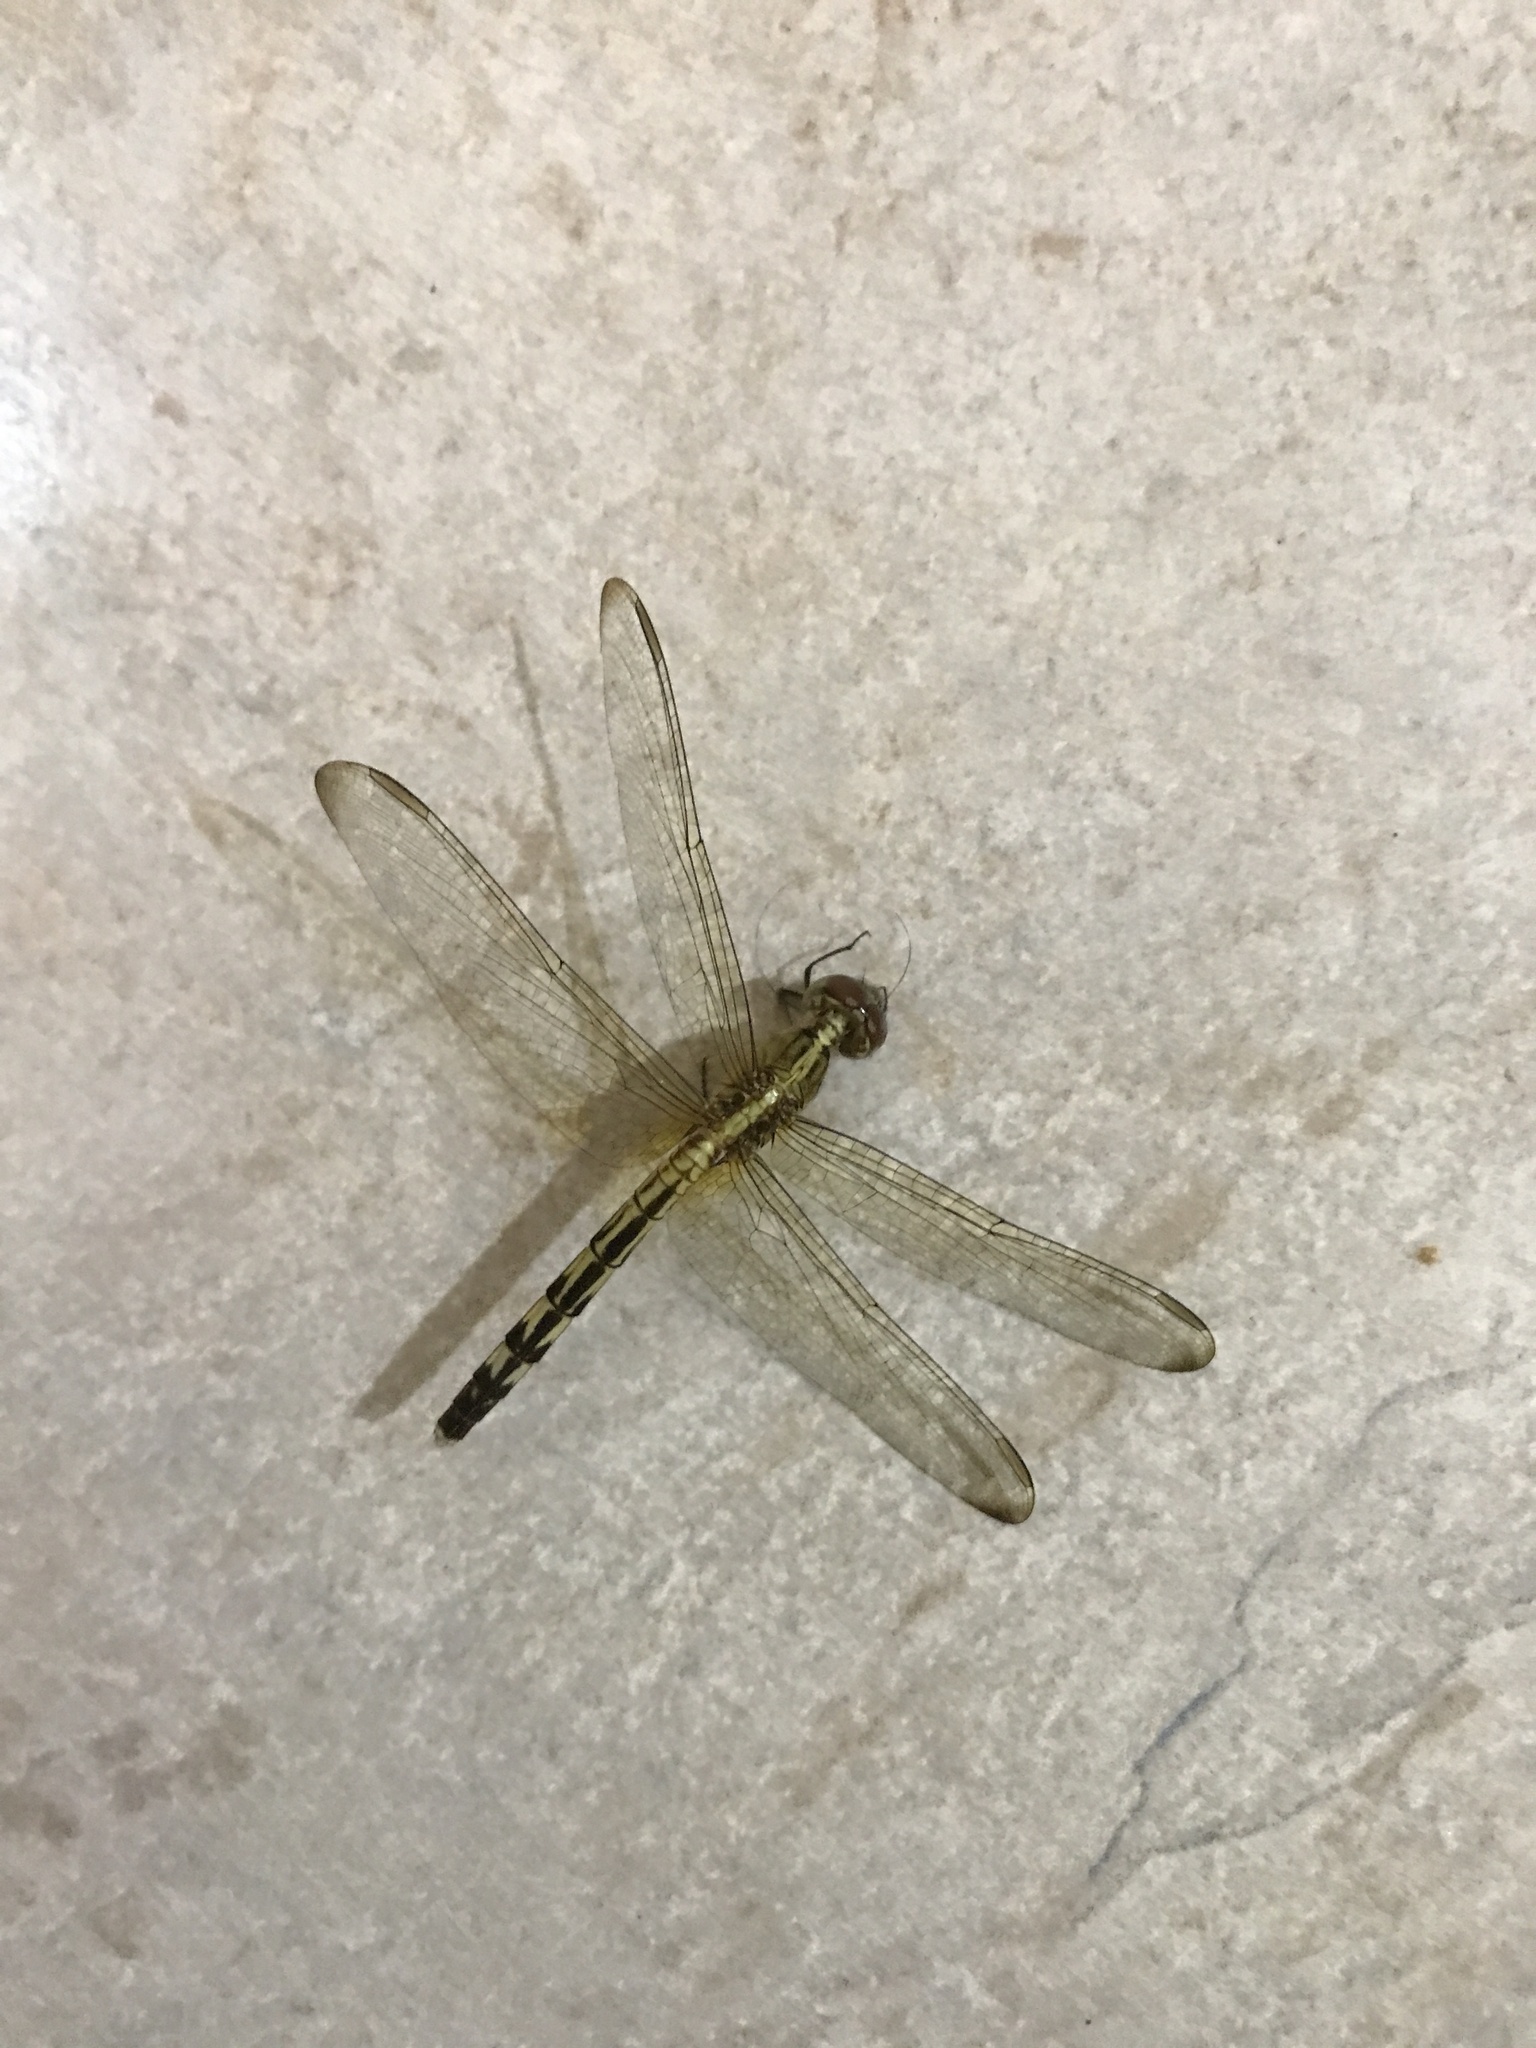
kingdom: Animalia
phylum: Arthropoda
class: Insecta
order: Odonata
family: Libellulidae
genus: Erythrodiplax
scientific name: Erythrodiplax umbrata
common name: Band-winged dragonlet
